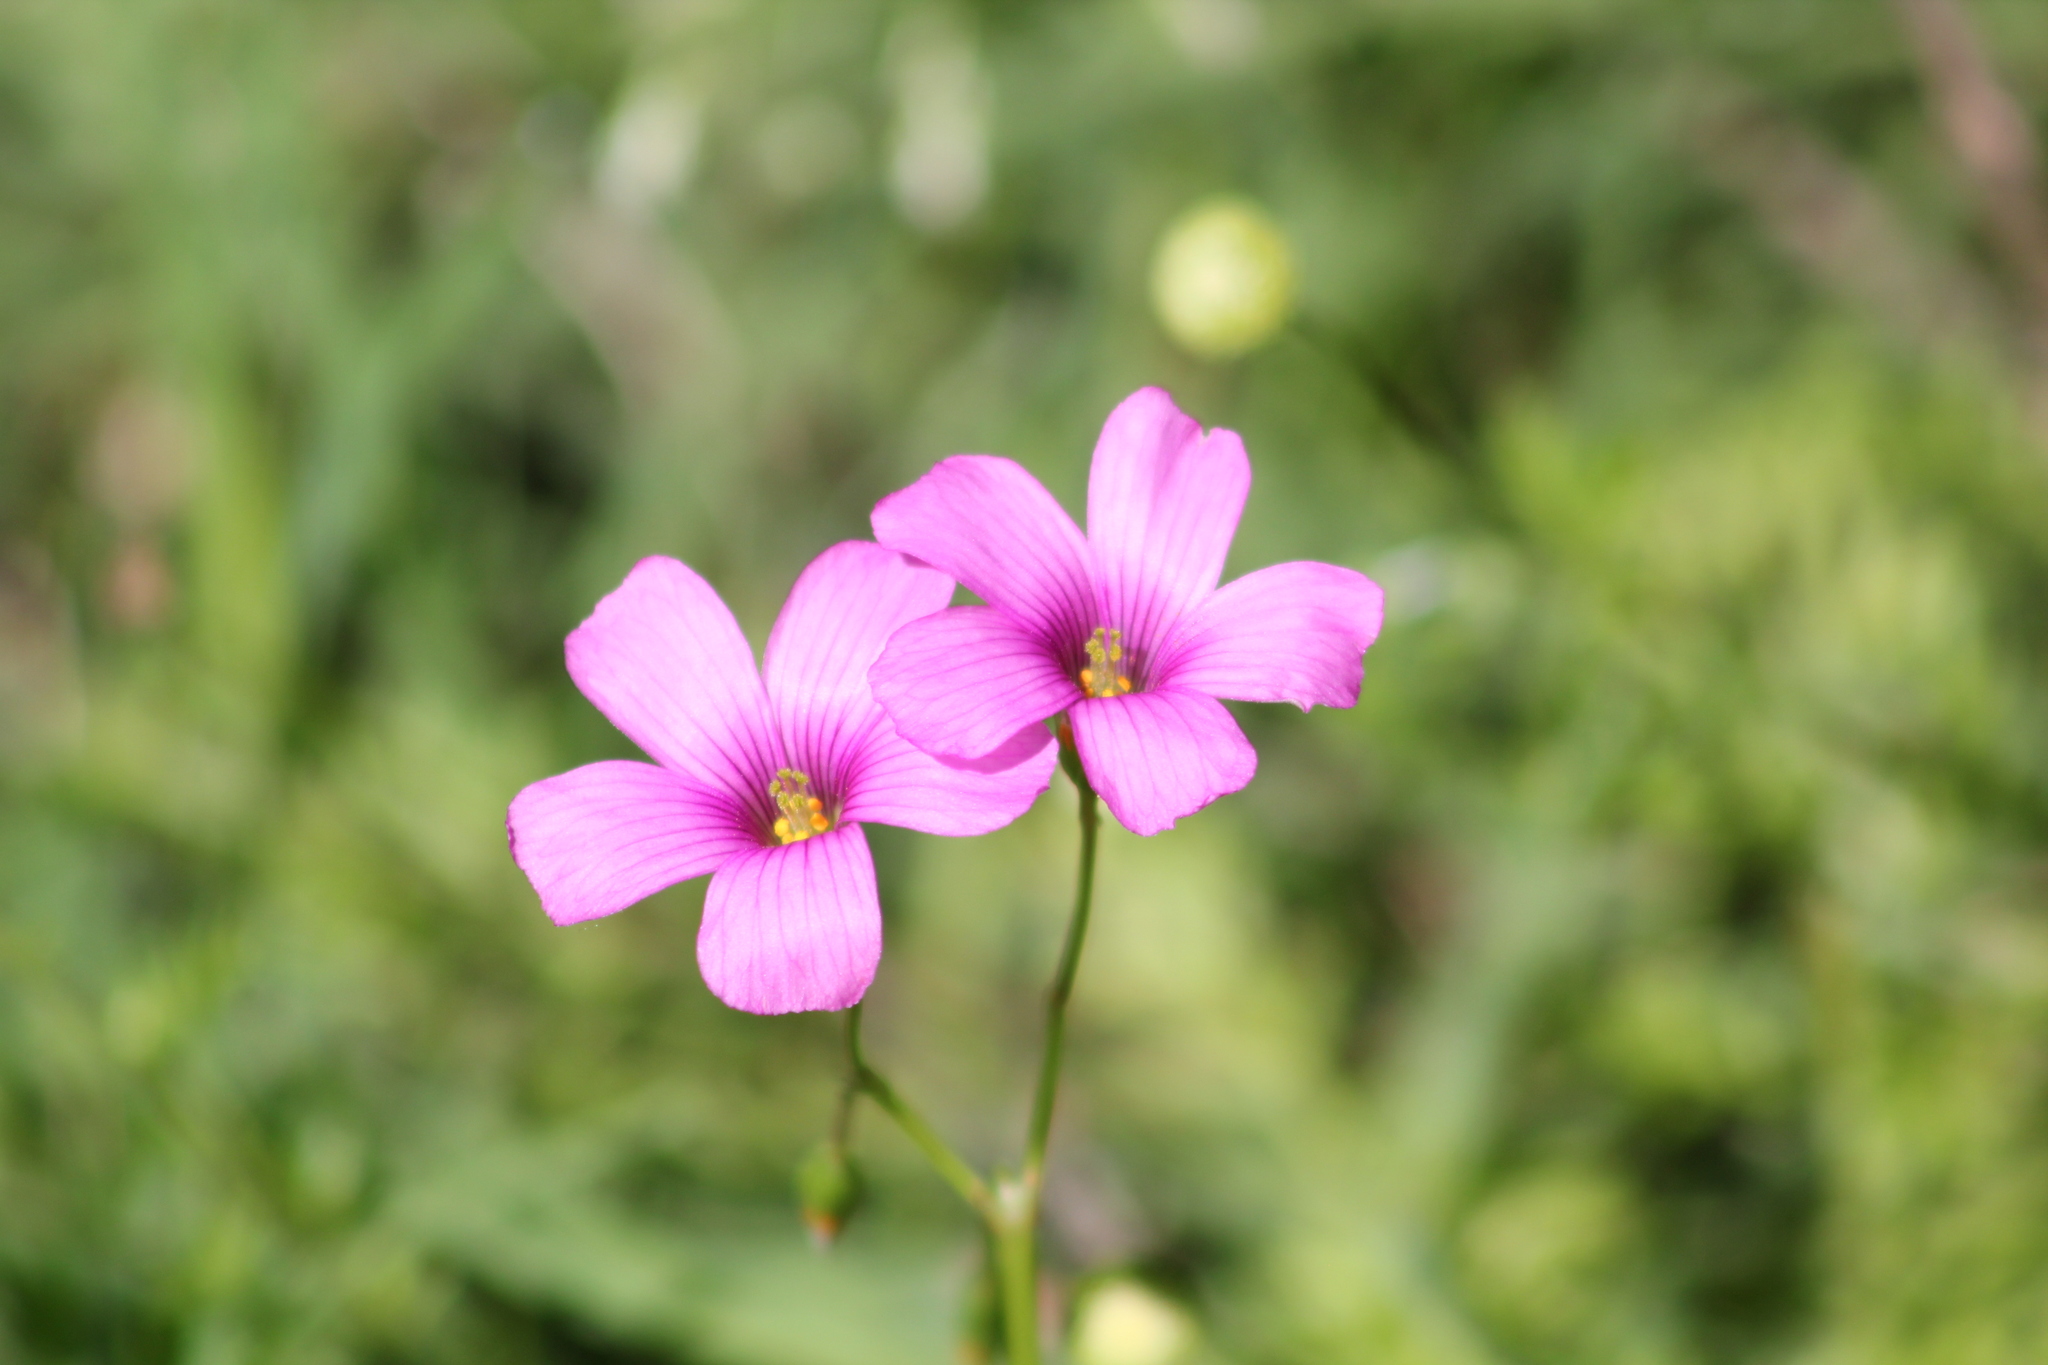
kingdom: Plantae
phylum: Tracheophyta
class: Magnoliopsida
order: Oxalidales
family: Oxalidaceae
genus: Oxalis
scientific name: Oxalis articulata
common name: Pink-sorrel
